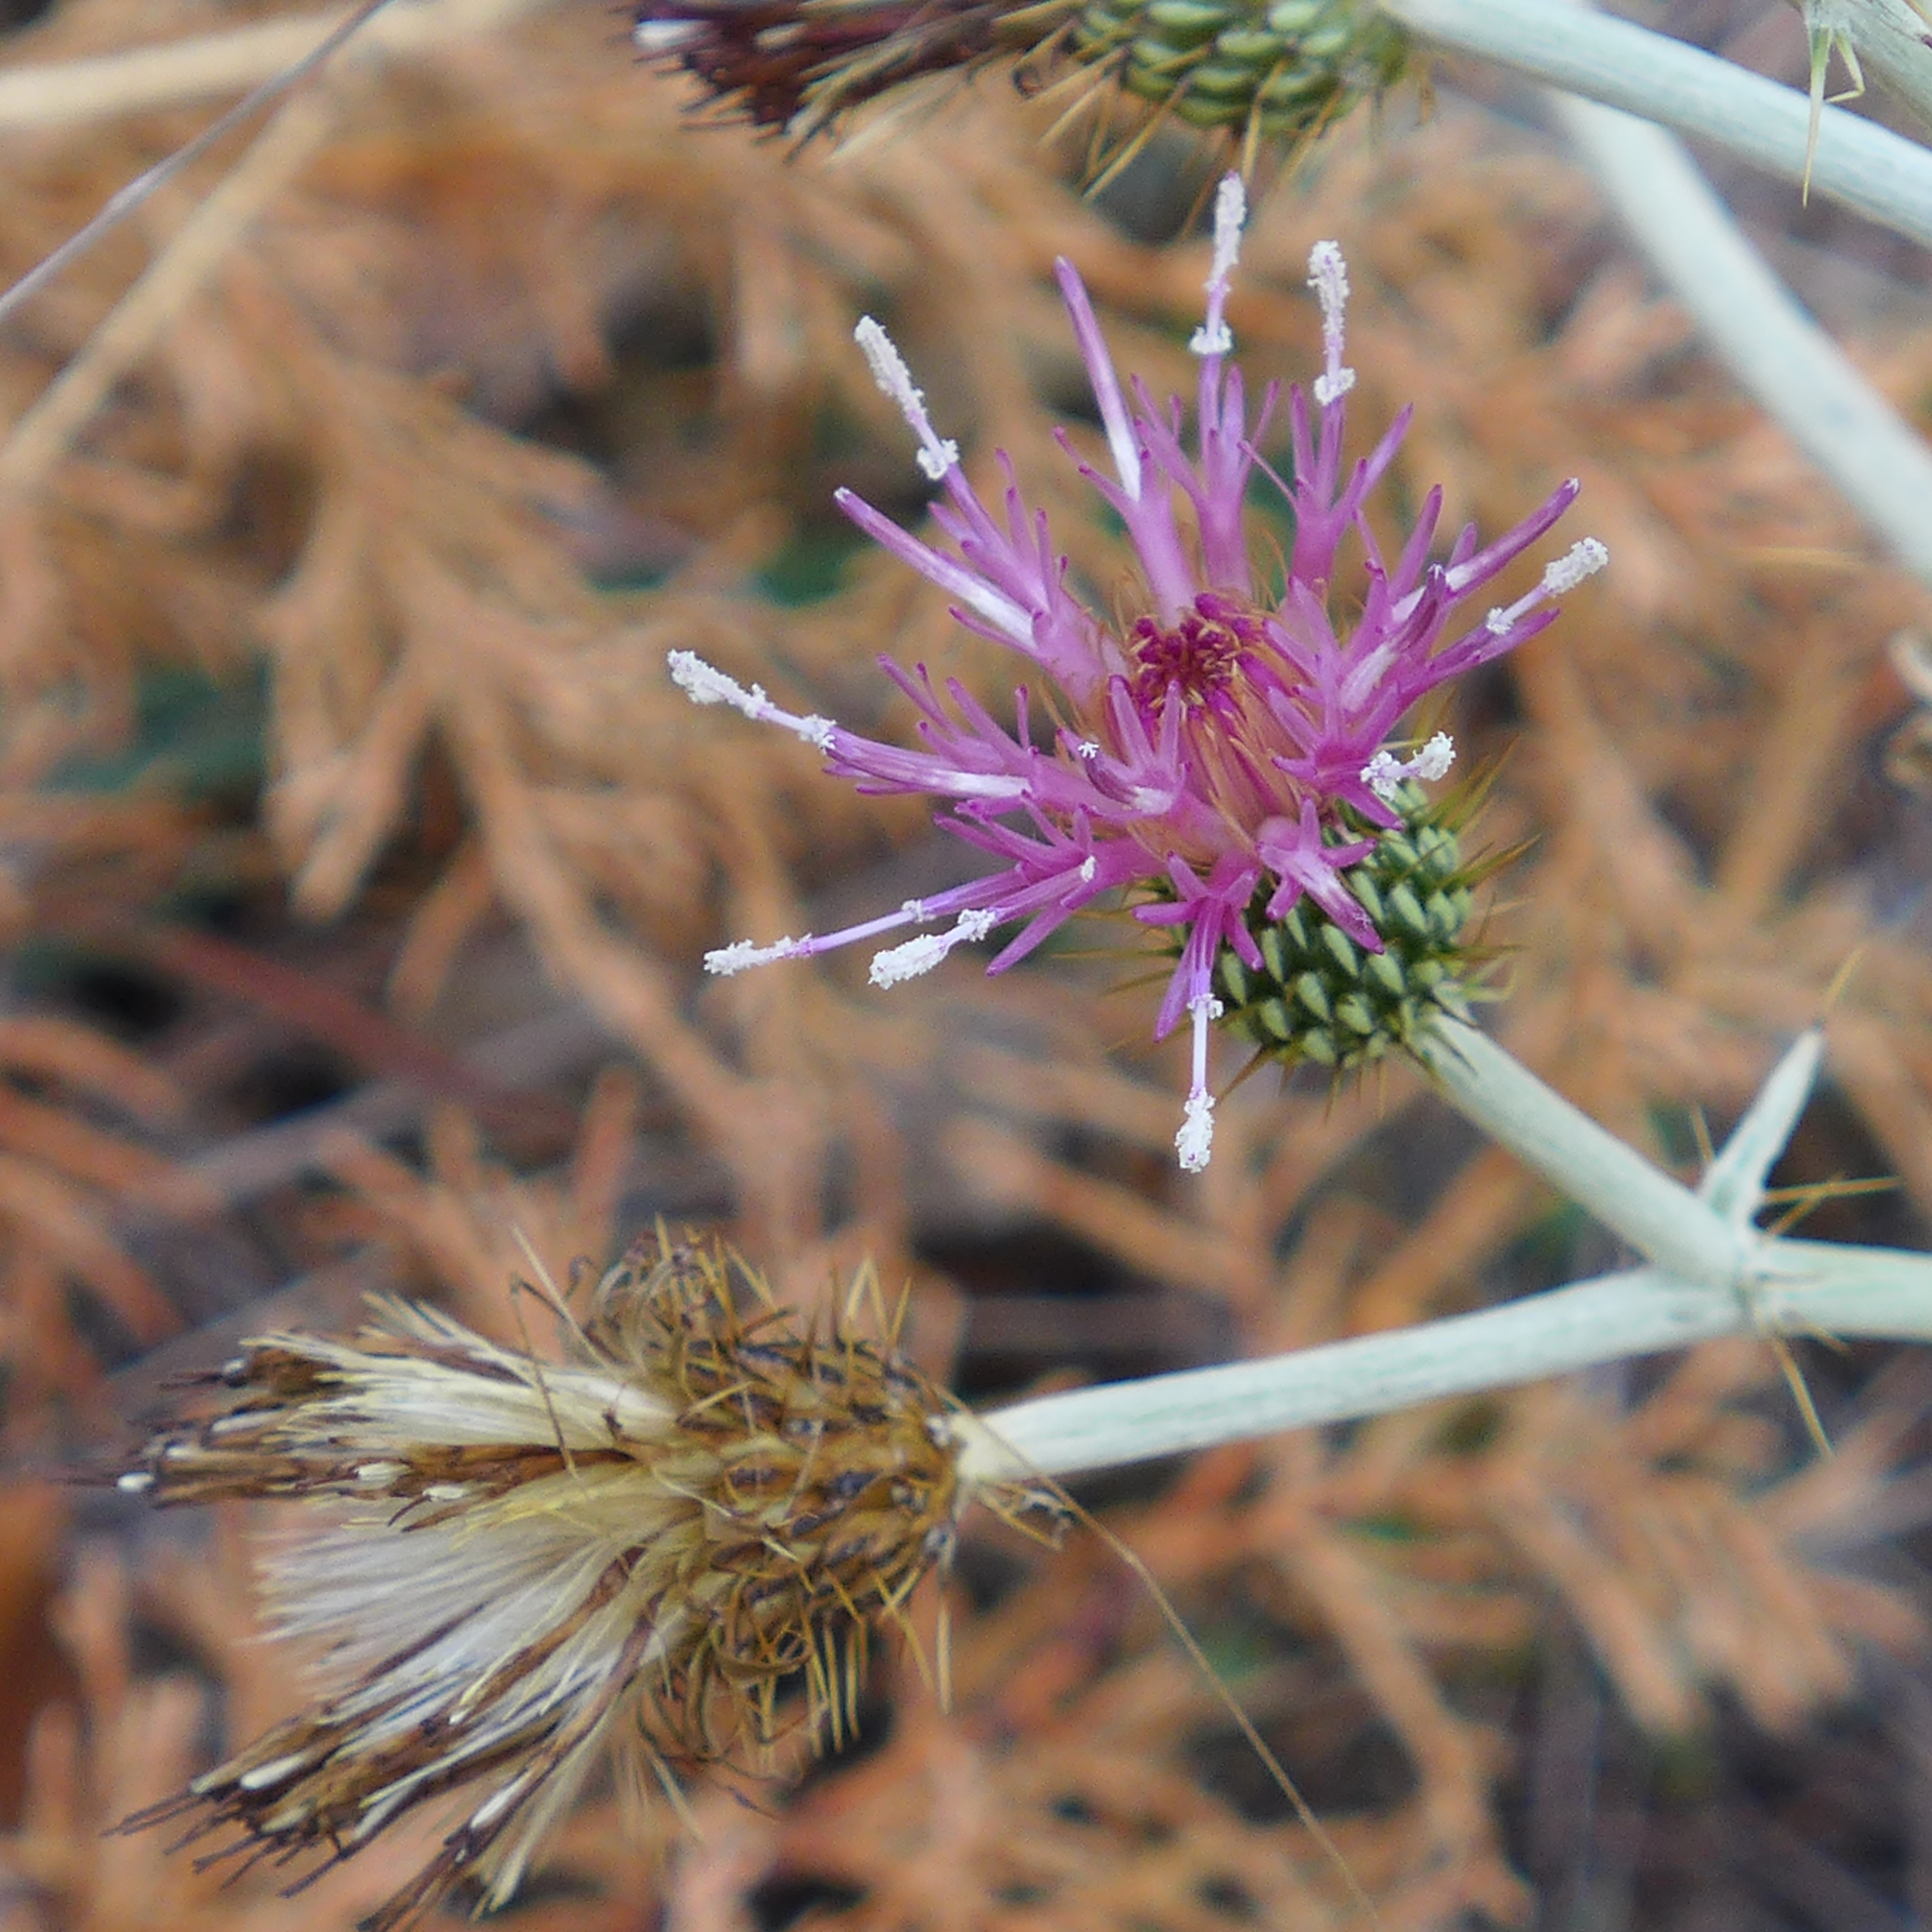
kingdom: Plantae
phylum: Tracheophyta
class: Magnoliopsida
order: Asterales
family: Asteraceae
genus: Cirsium
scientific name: Cirsium douglasii
